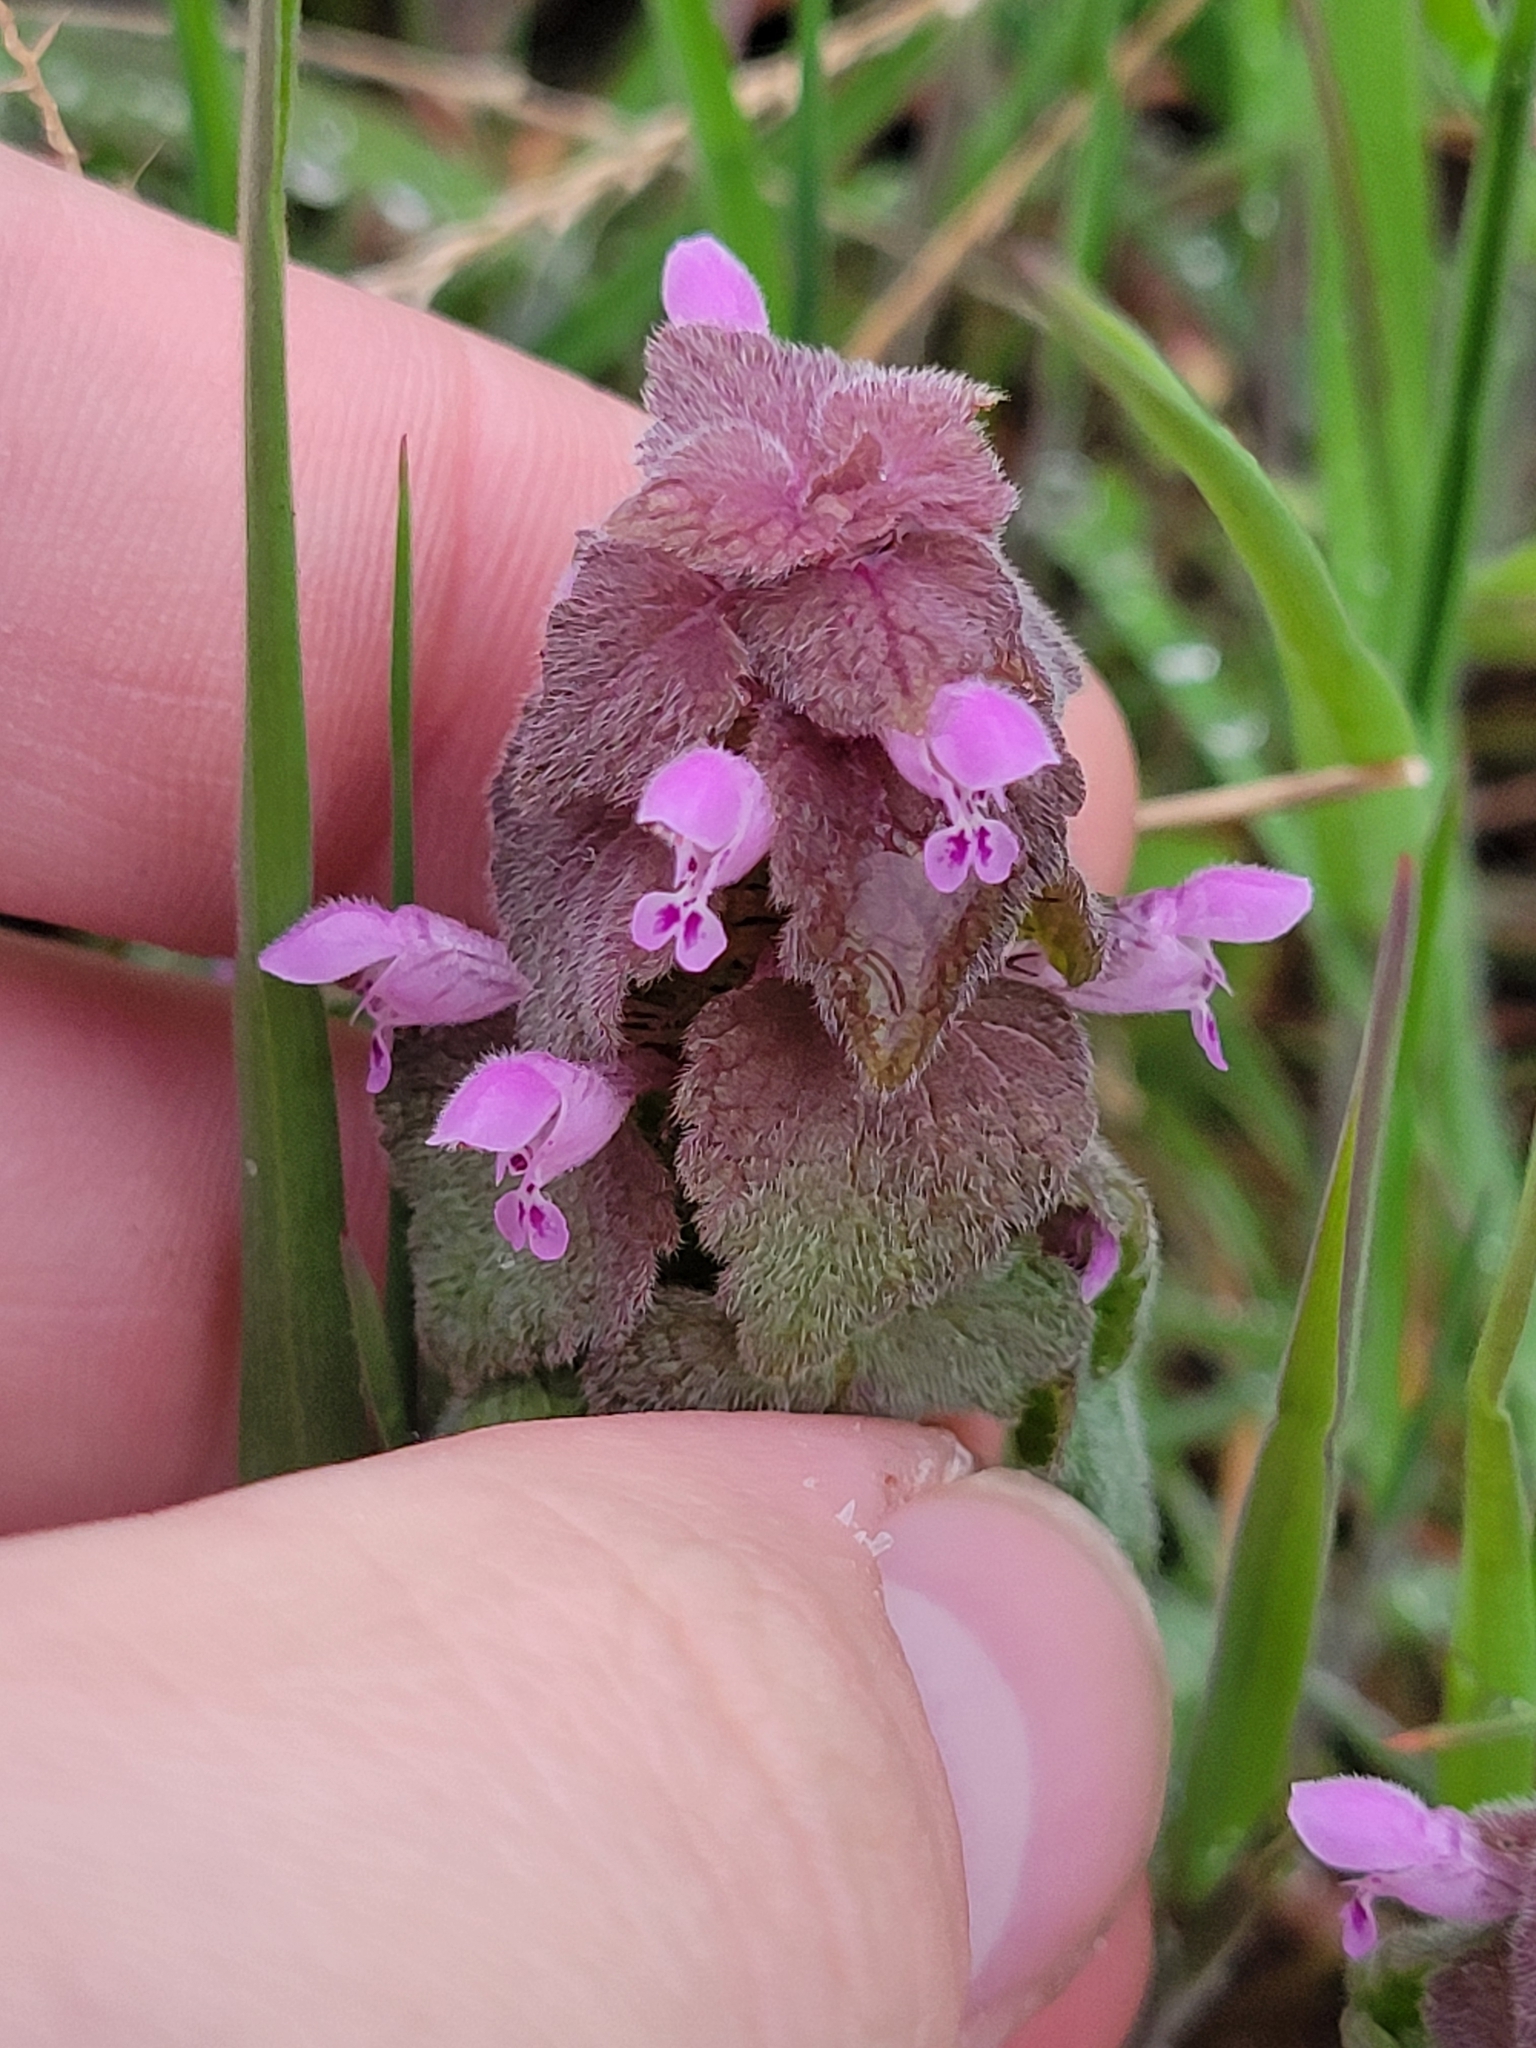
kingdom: Plantae
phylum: Tracheophyta
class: Magnoliopsida
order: Lamiales
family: Lamiaceae
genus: Lamium
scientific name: Lamium purpureum
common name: Red dead-nettle
